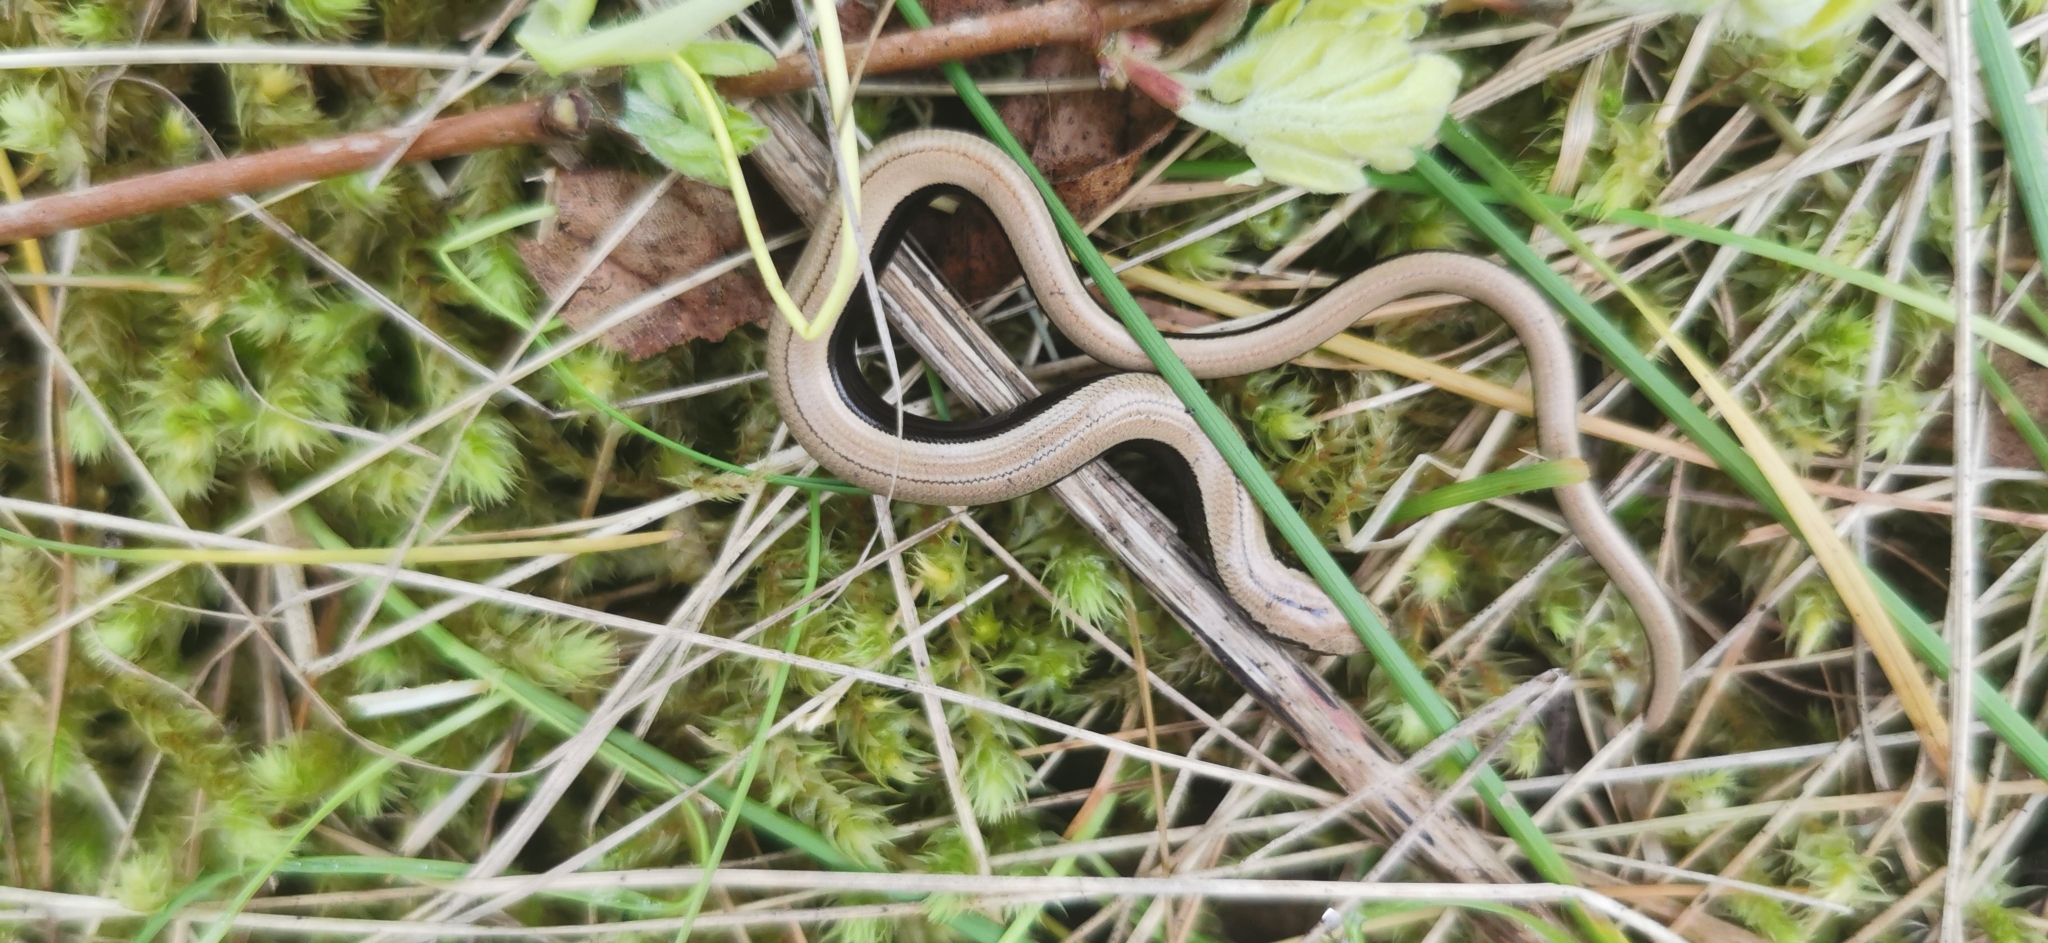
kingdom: Animalia
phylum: Chordata
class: Squamata
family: Anguidae
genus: Anguis
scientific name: Anguis fragilis
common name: Slow worm
